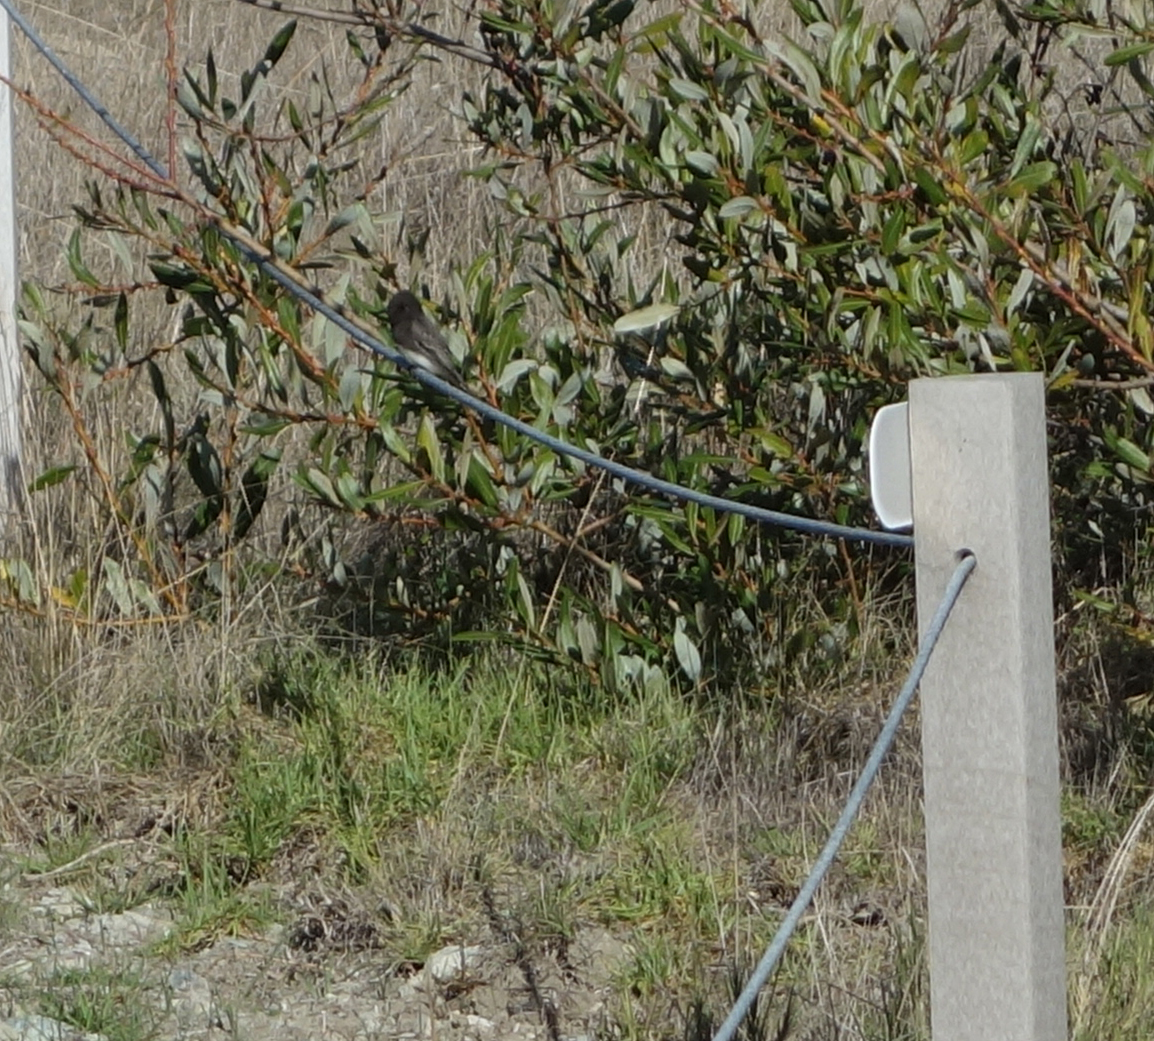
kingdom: Animalia
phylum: Chordata
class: Aves
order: Passeriformes
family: Tyrannidae
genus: Sayornis
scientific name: Sayornis nigricans
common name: Black phoebe
